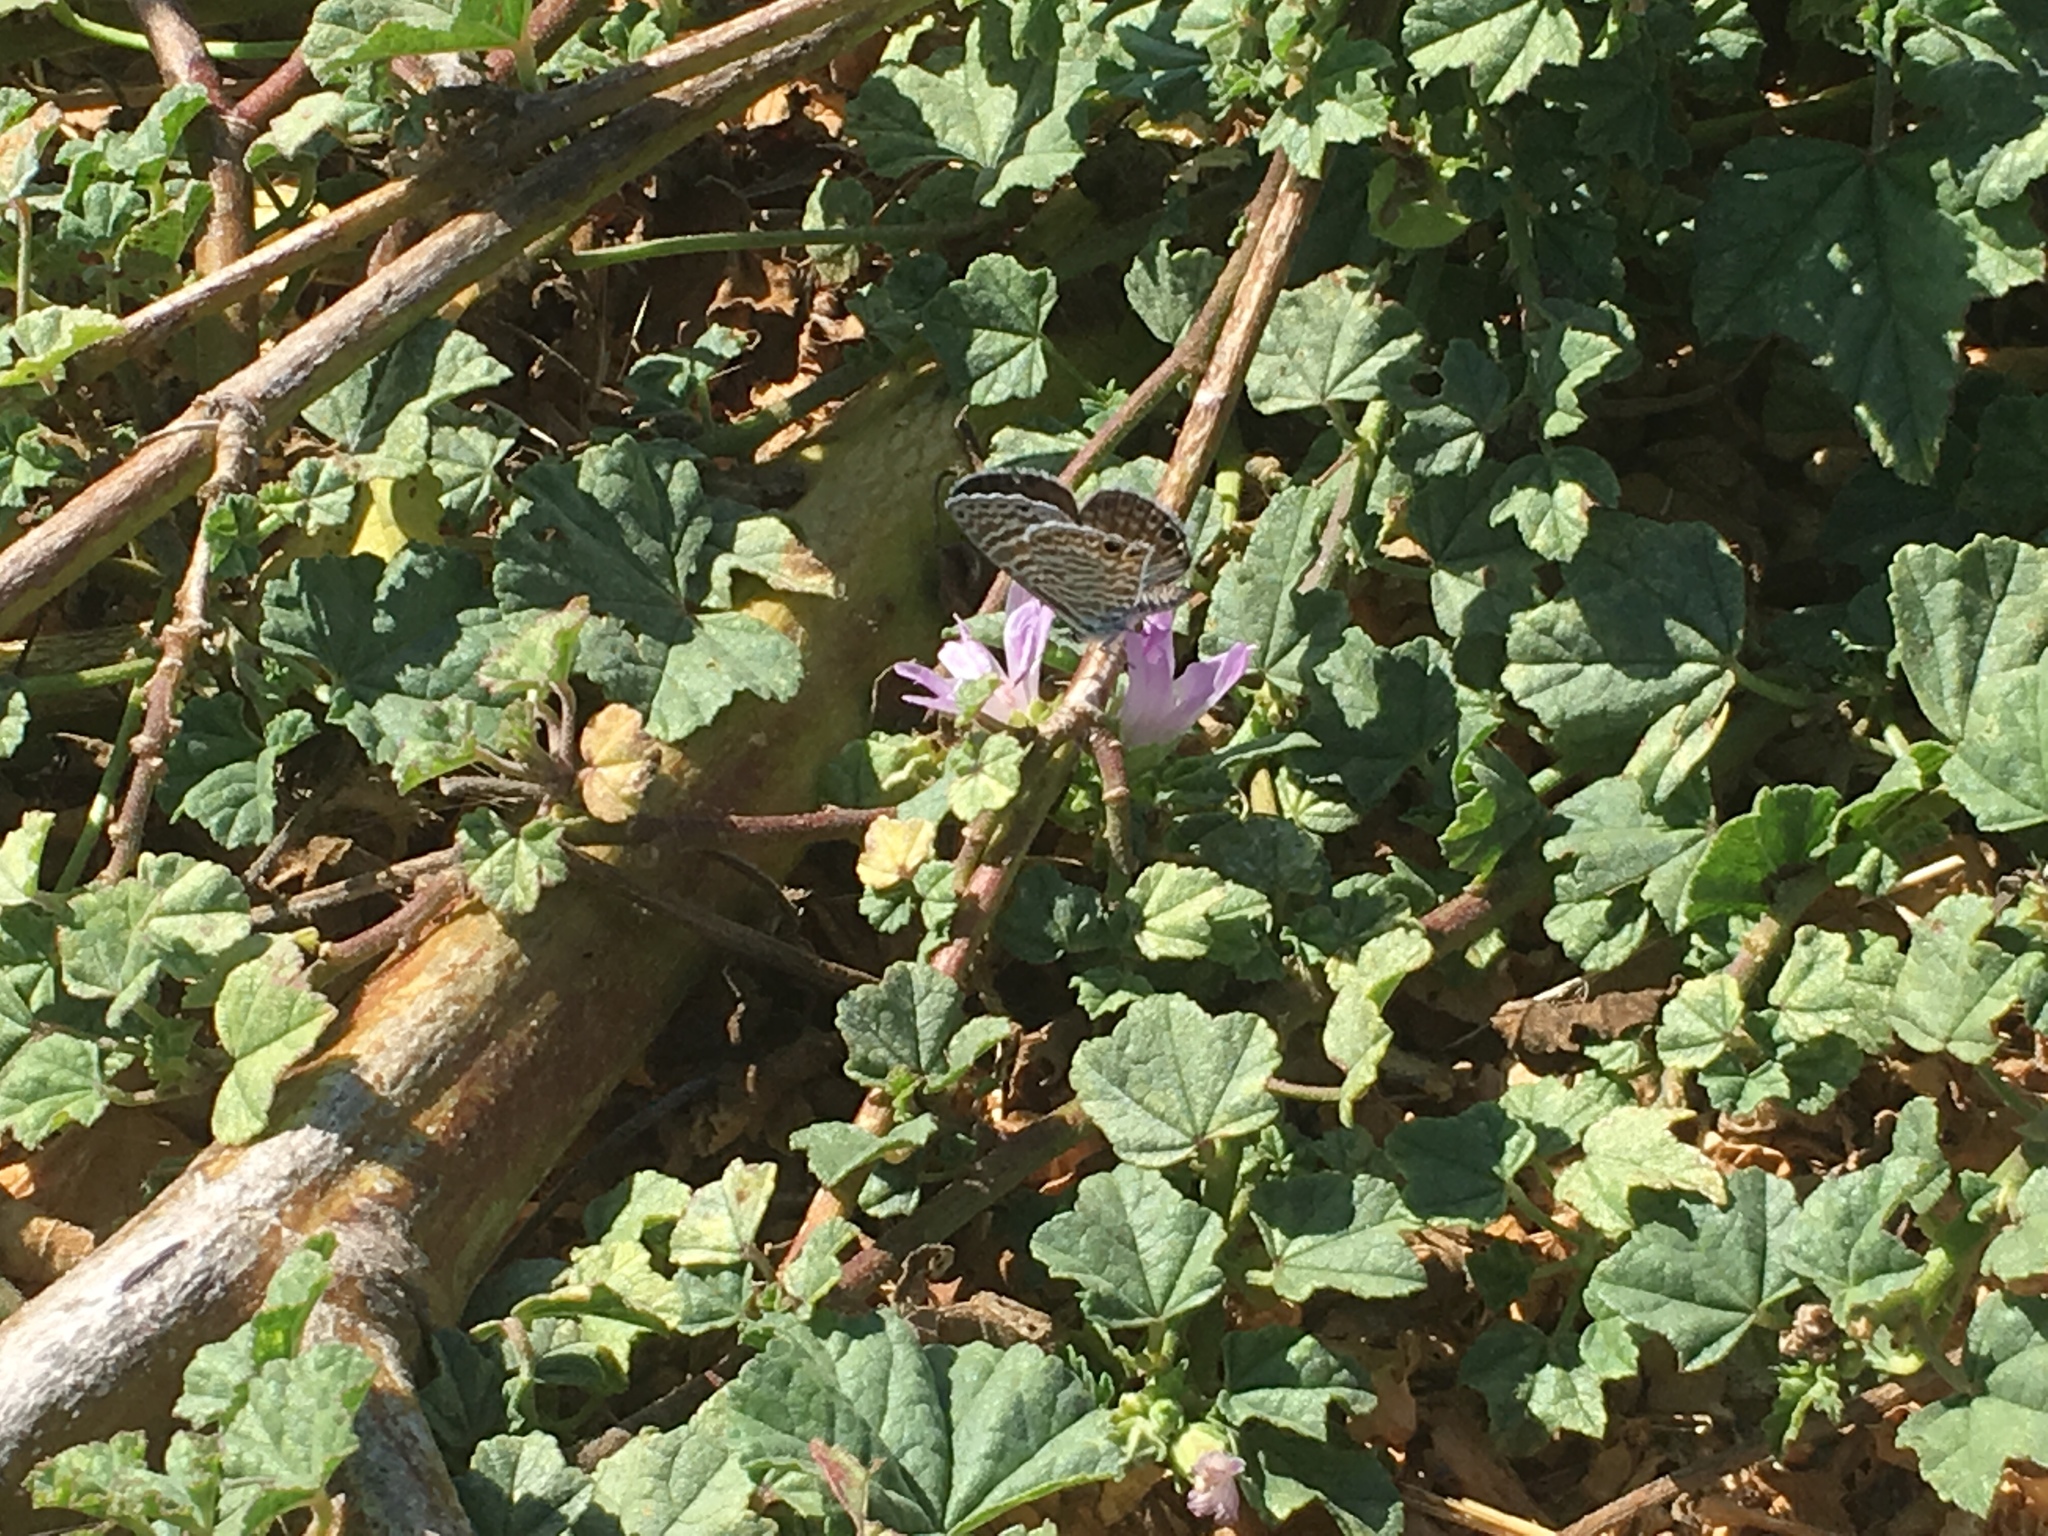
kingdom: Animalia
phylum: Arthropoda
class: Insecta
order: Lepidoptera
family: Lycaenidae
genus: Leptotes
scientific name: Leptotes marina
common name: Marine blue
